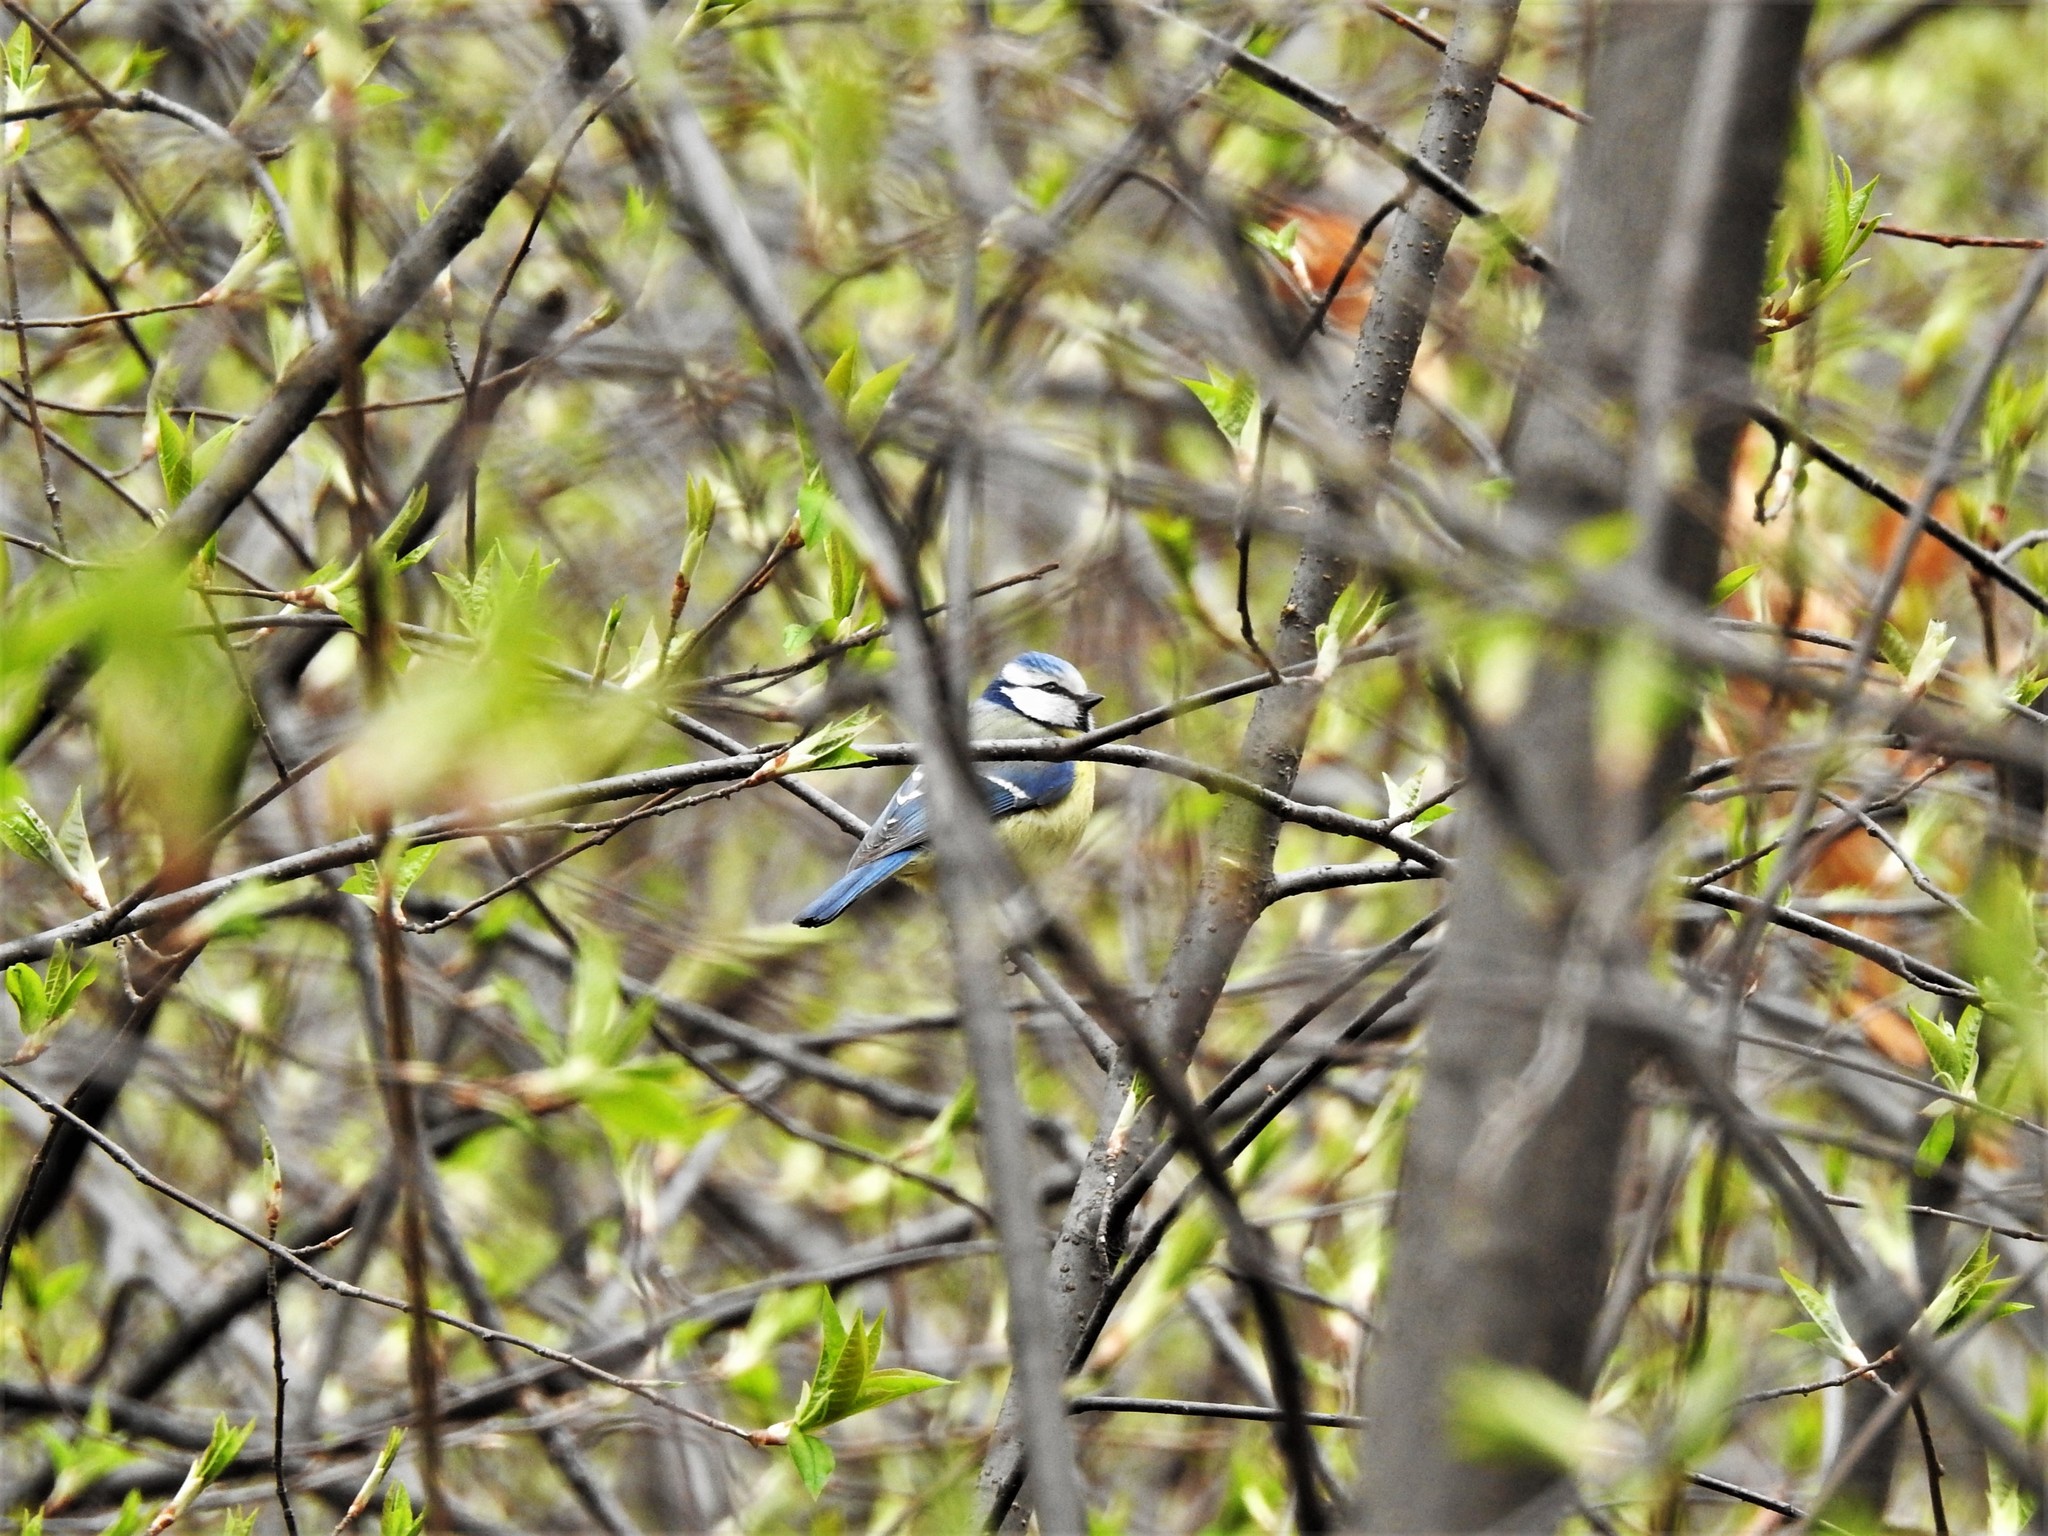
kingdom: Animalia
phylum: Chordata
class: Aves
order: Passeriformes
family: Paridae
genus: Cyanistes
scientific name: Cyanistes caeruleus
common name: Eurasian blue tit
